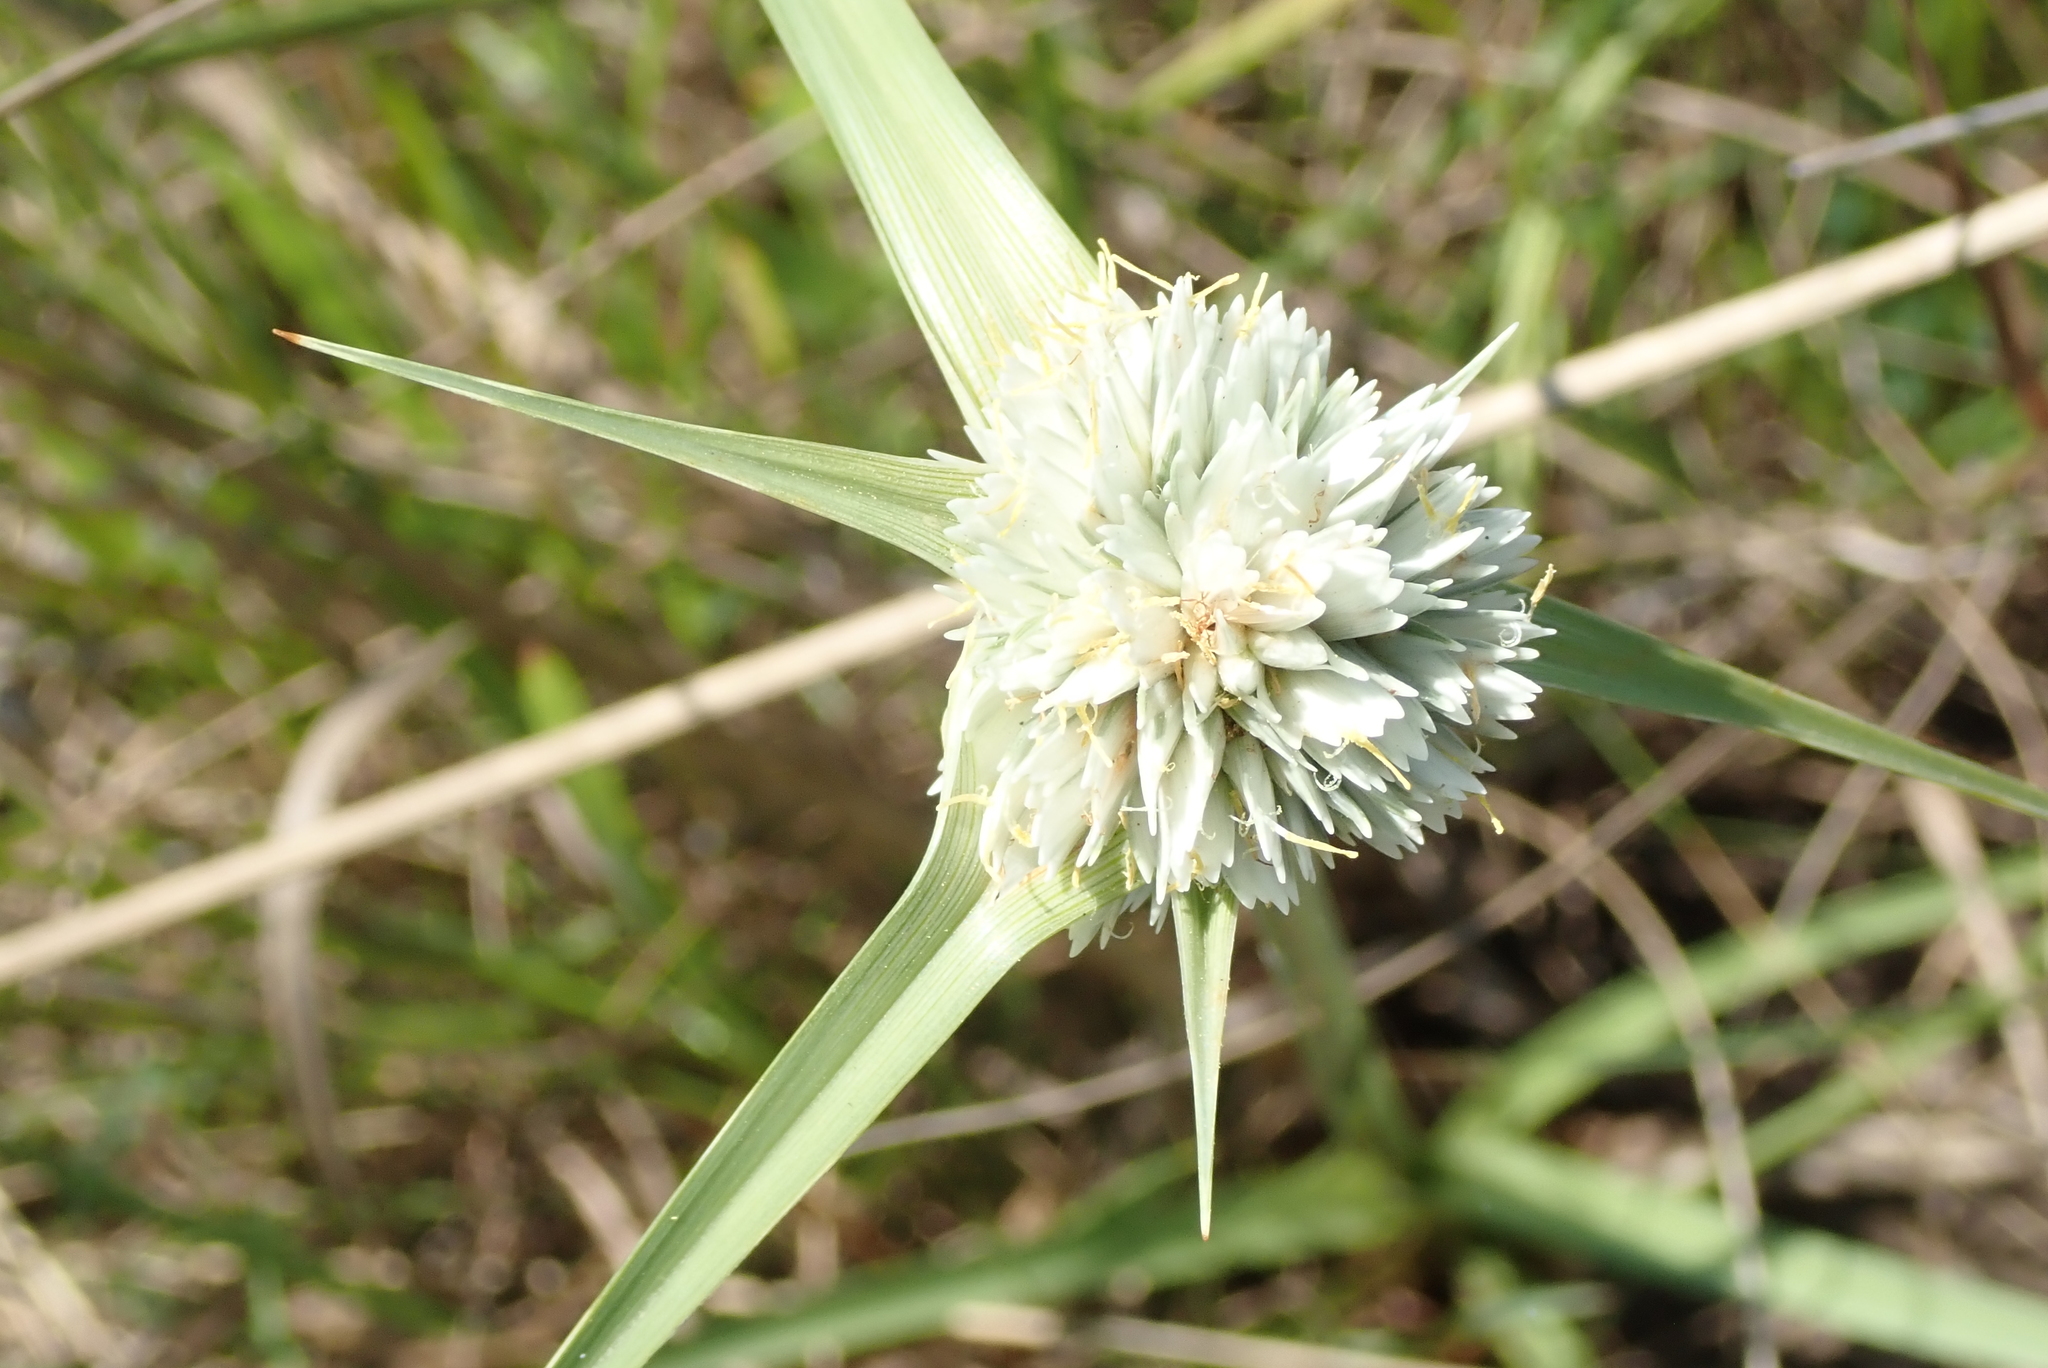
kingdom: Plantae
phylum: Tracheophyta
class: Liliopsida
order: Poales
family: Cyperaceae
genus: Cyperus
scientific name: Cyperus niveus
